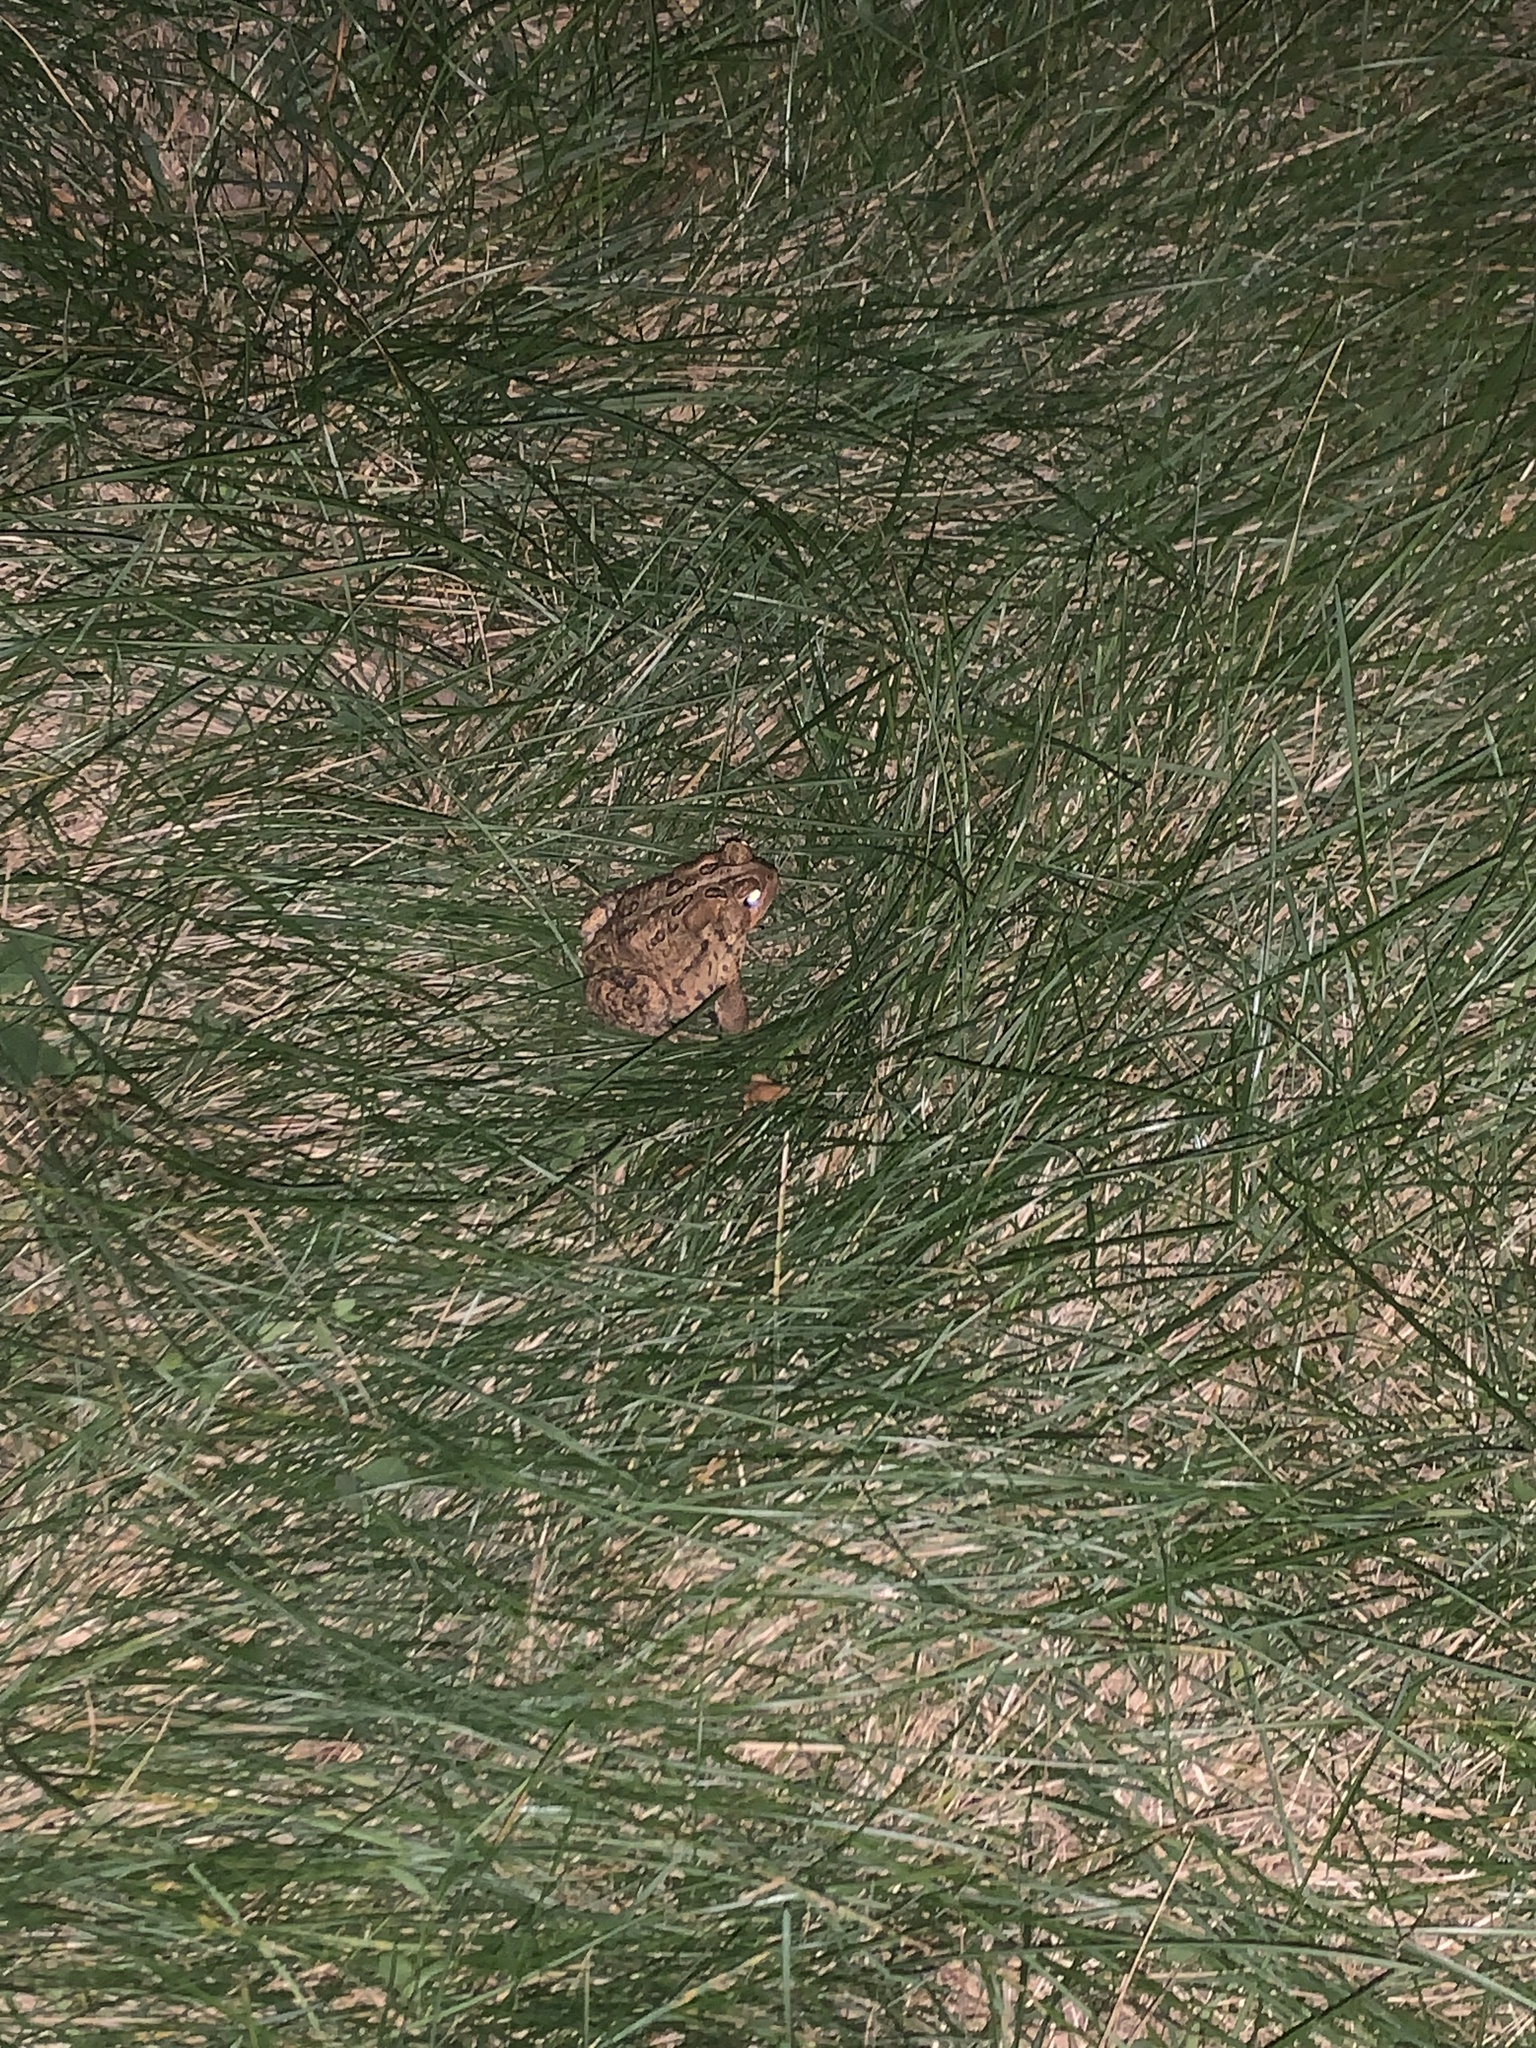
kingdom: Animalia
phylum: Chordata
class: Amphibia
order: Anura
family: Bufonidae
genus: Anaxyrus
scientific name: Anaxyrus americanus
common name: American toad
